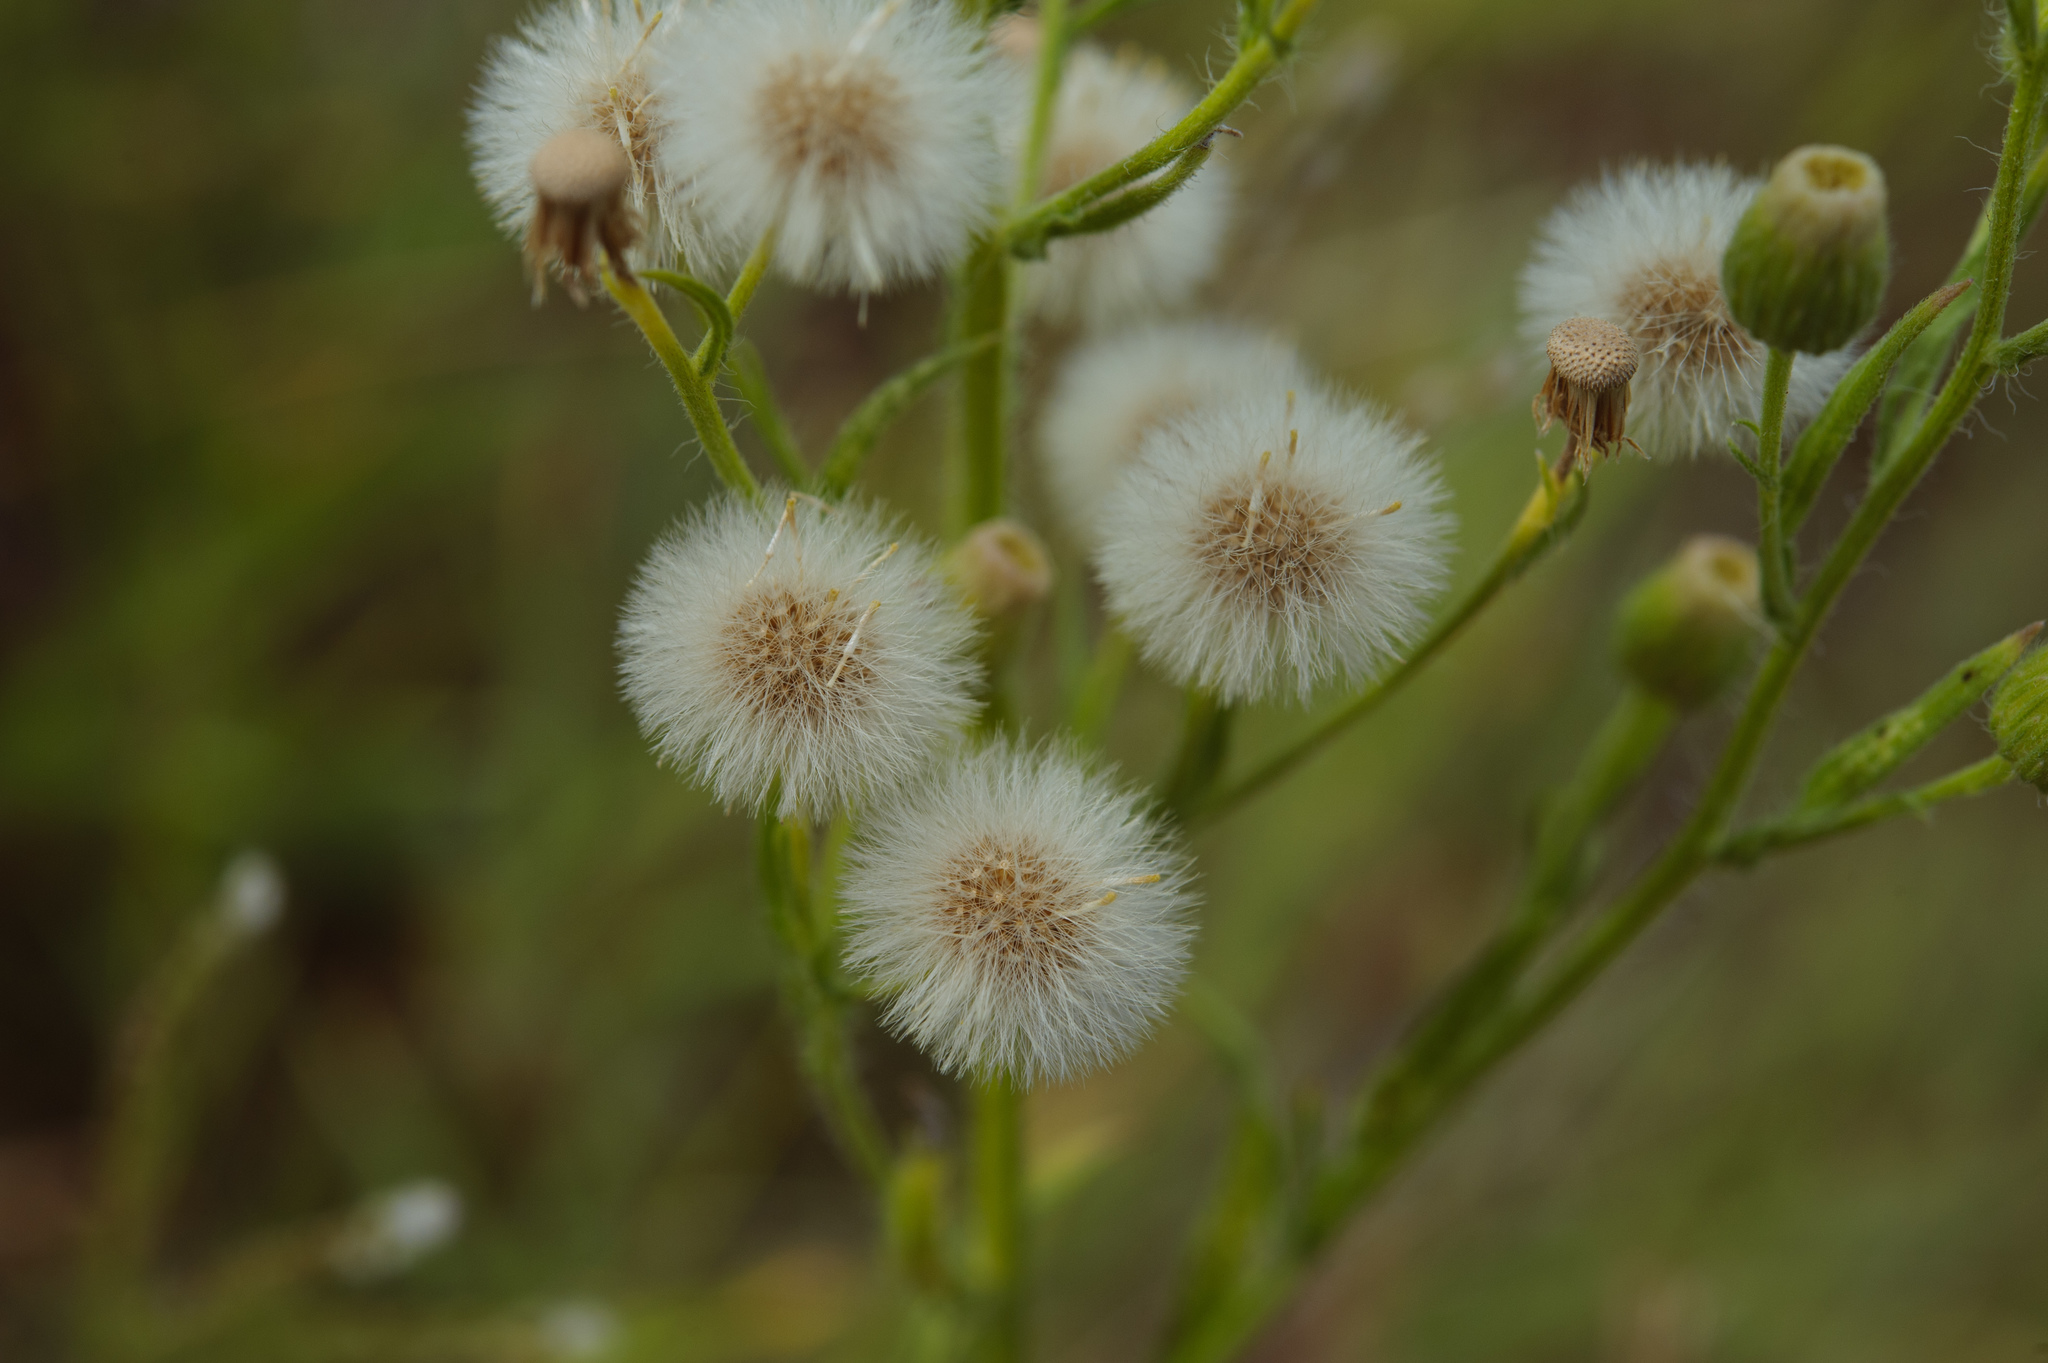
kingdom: Plantae
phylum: Tracheophyta
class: Magnoliopsida
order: Asterales
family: Asteraceae
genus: Erigeron
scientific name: Erigeron bonariensis
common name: Argentine fleabane
